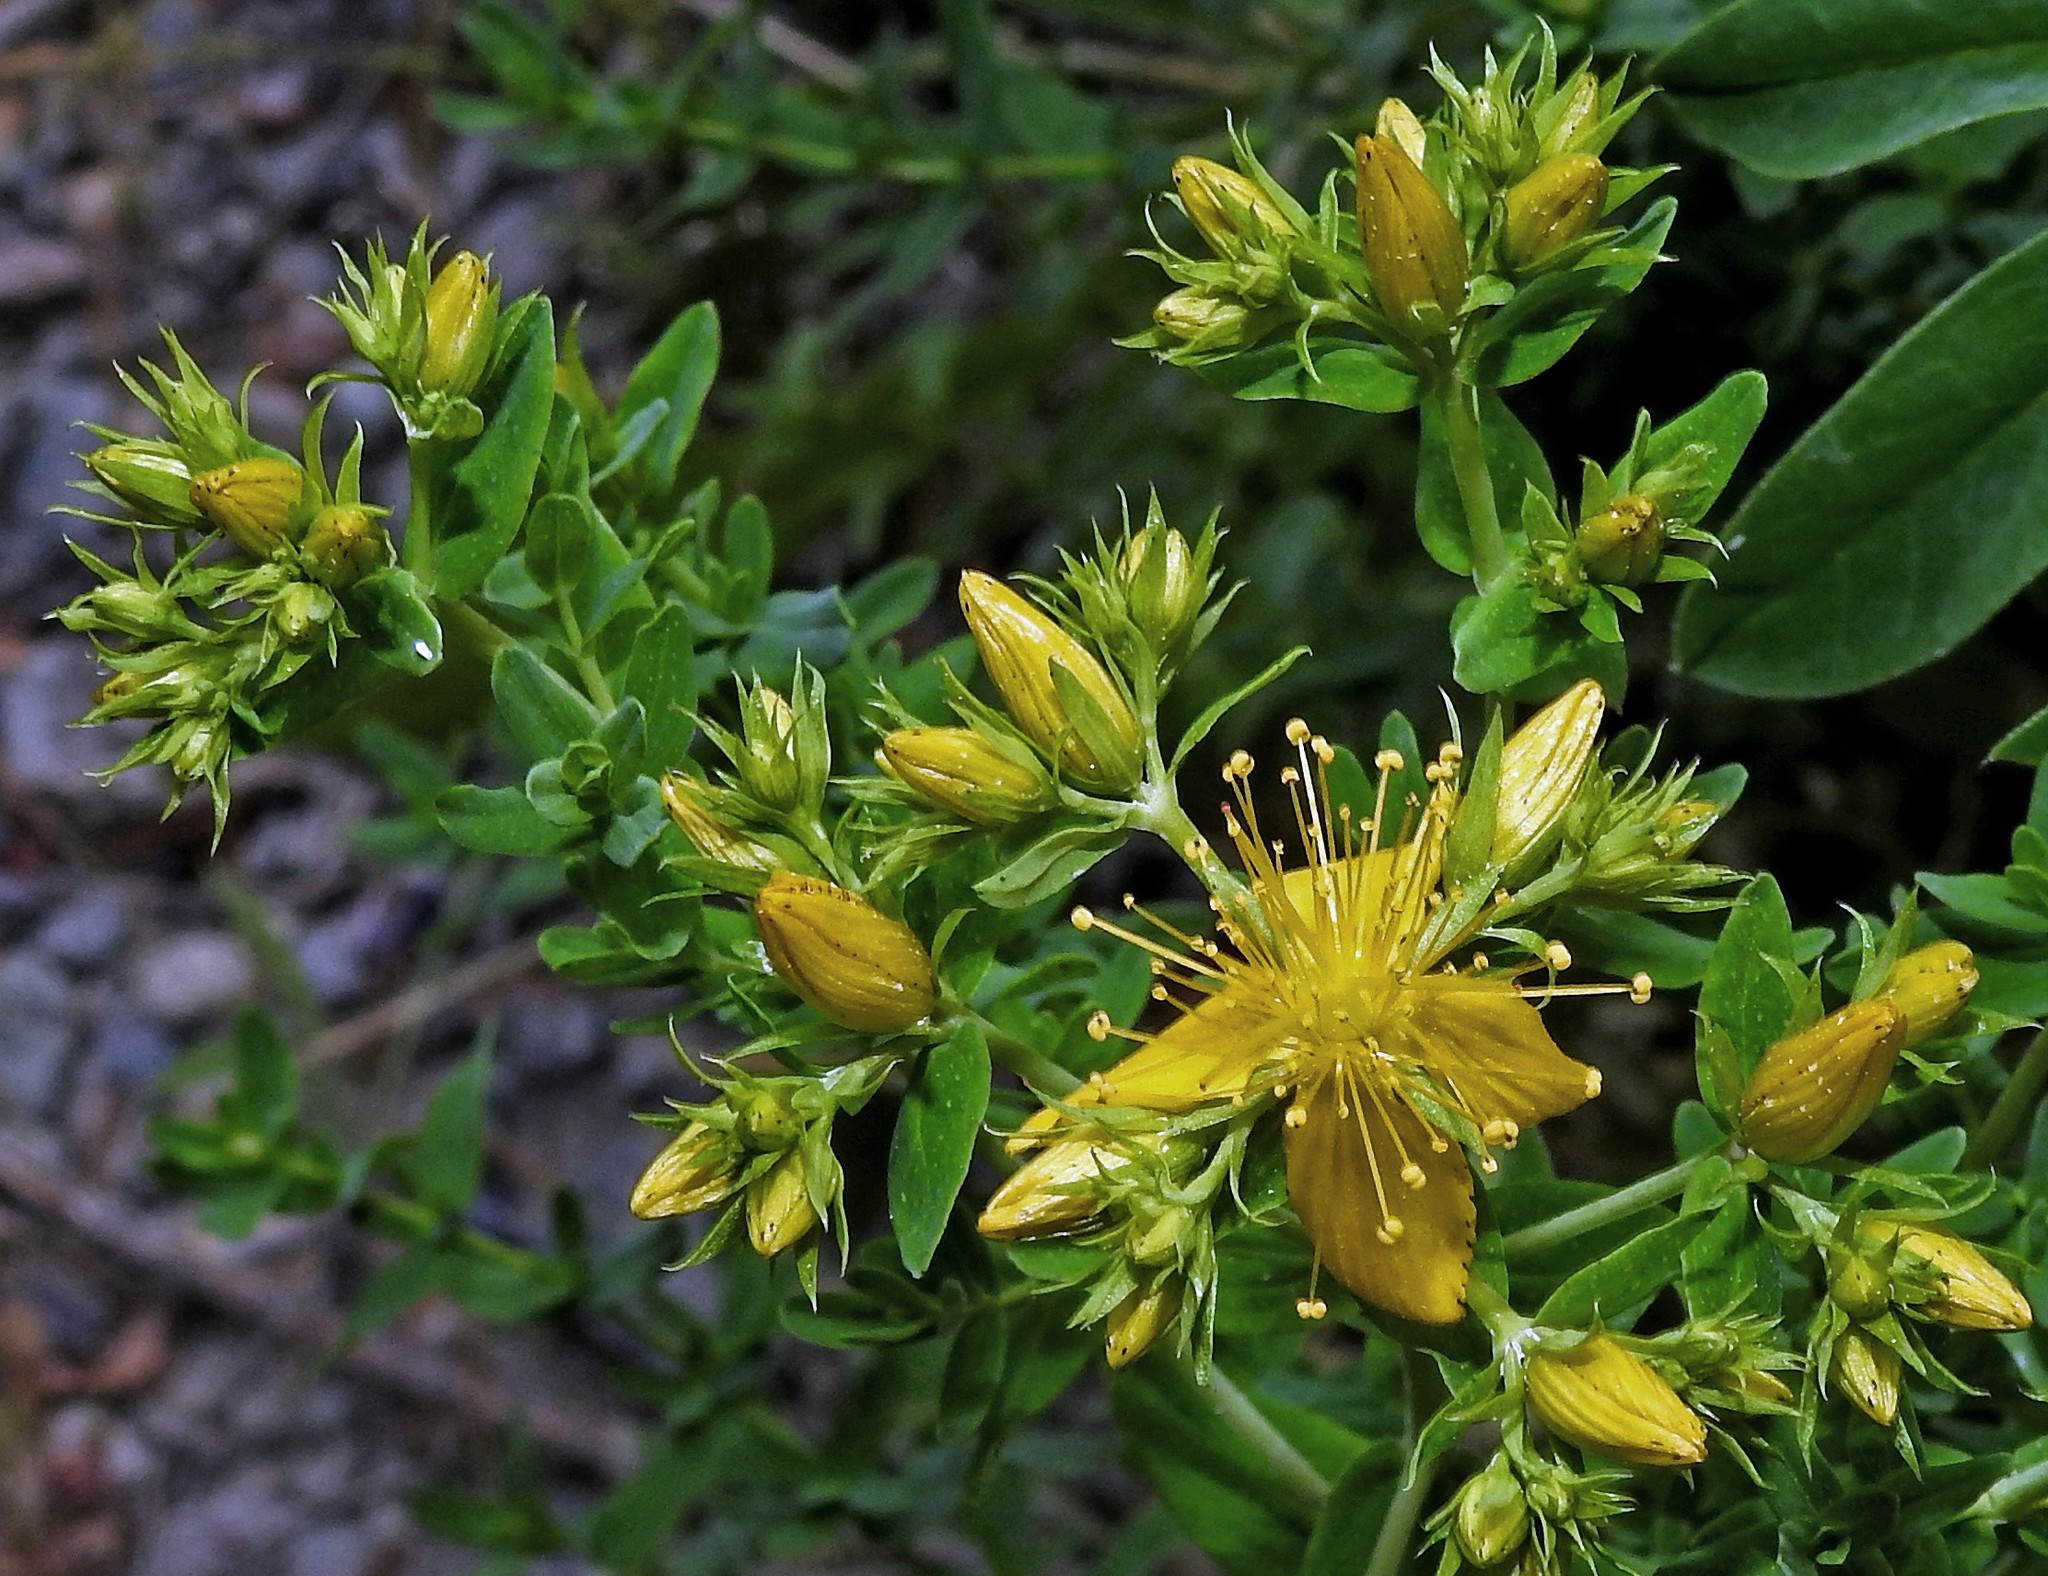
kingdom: Plantae
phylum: Tracheophyta
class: Magnoliopsida
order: Malpighiales
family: Hypericaceae
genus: Hypericum
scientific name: Hypericum perforatum
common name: Common st. johnswort
